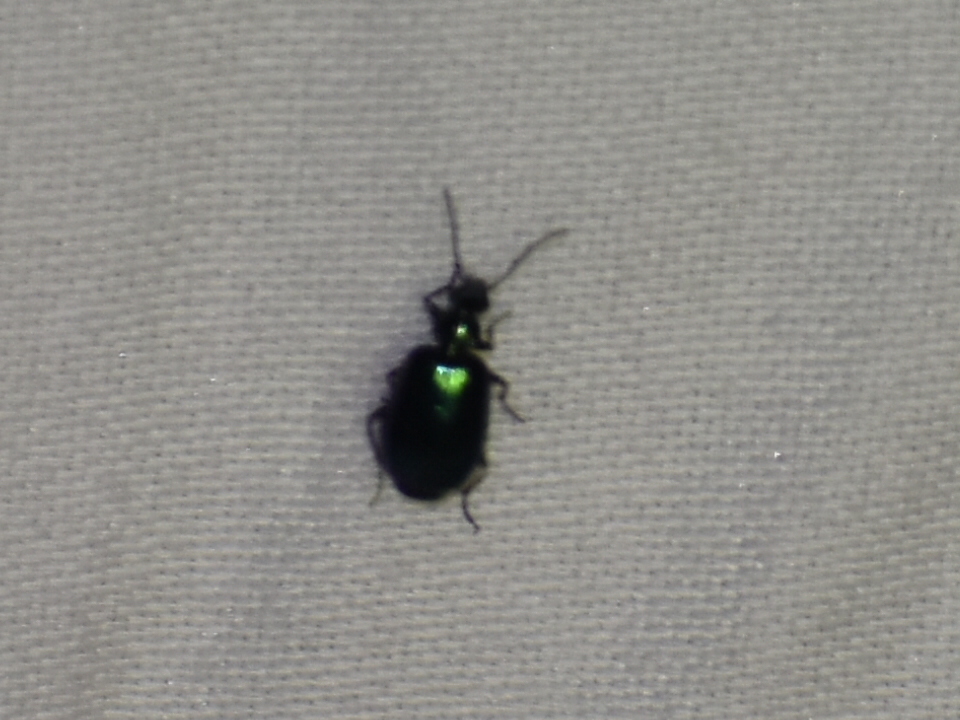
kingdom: Animalia
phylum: Arthropoda
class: Insecta
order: Coleoptera
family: Carabidae
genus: Lebia
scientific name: Lebia viridis
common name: Flower lebia beetle
